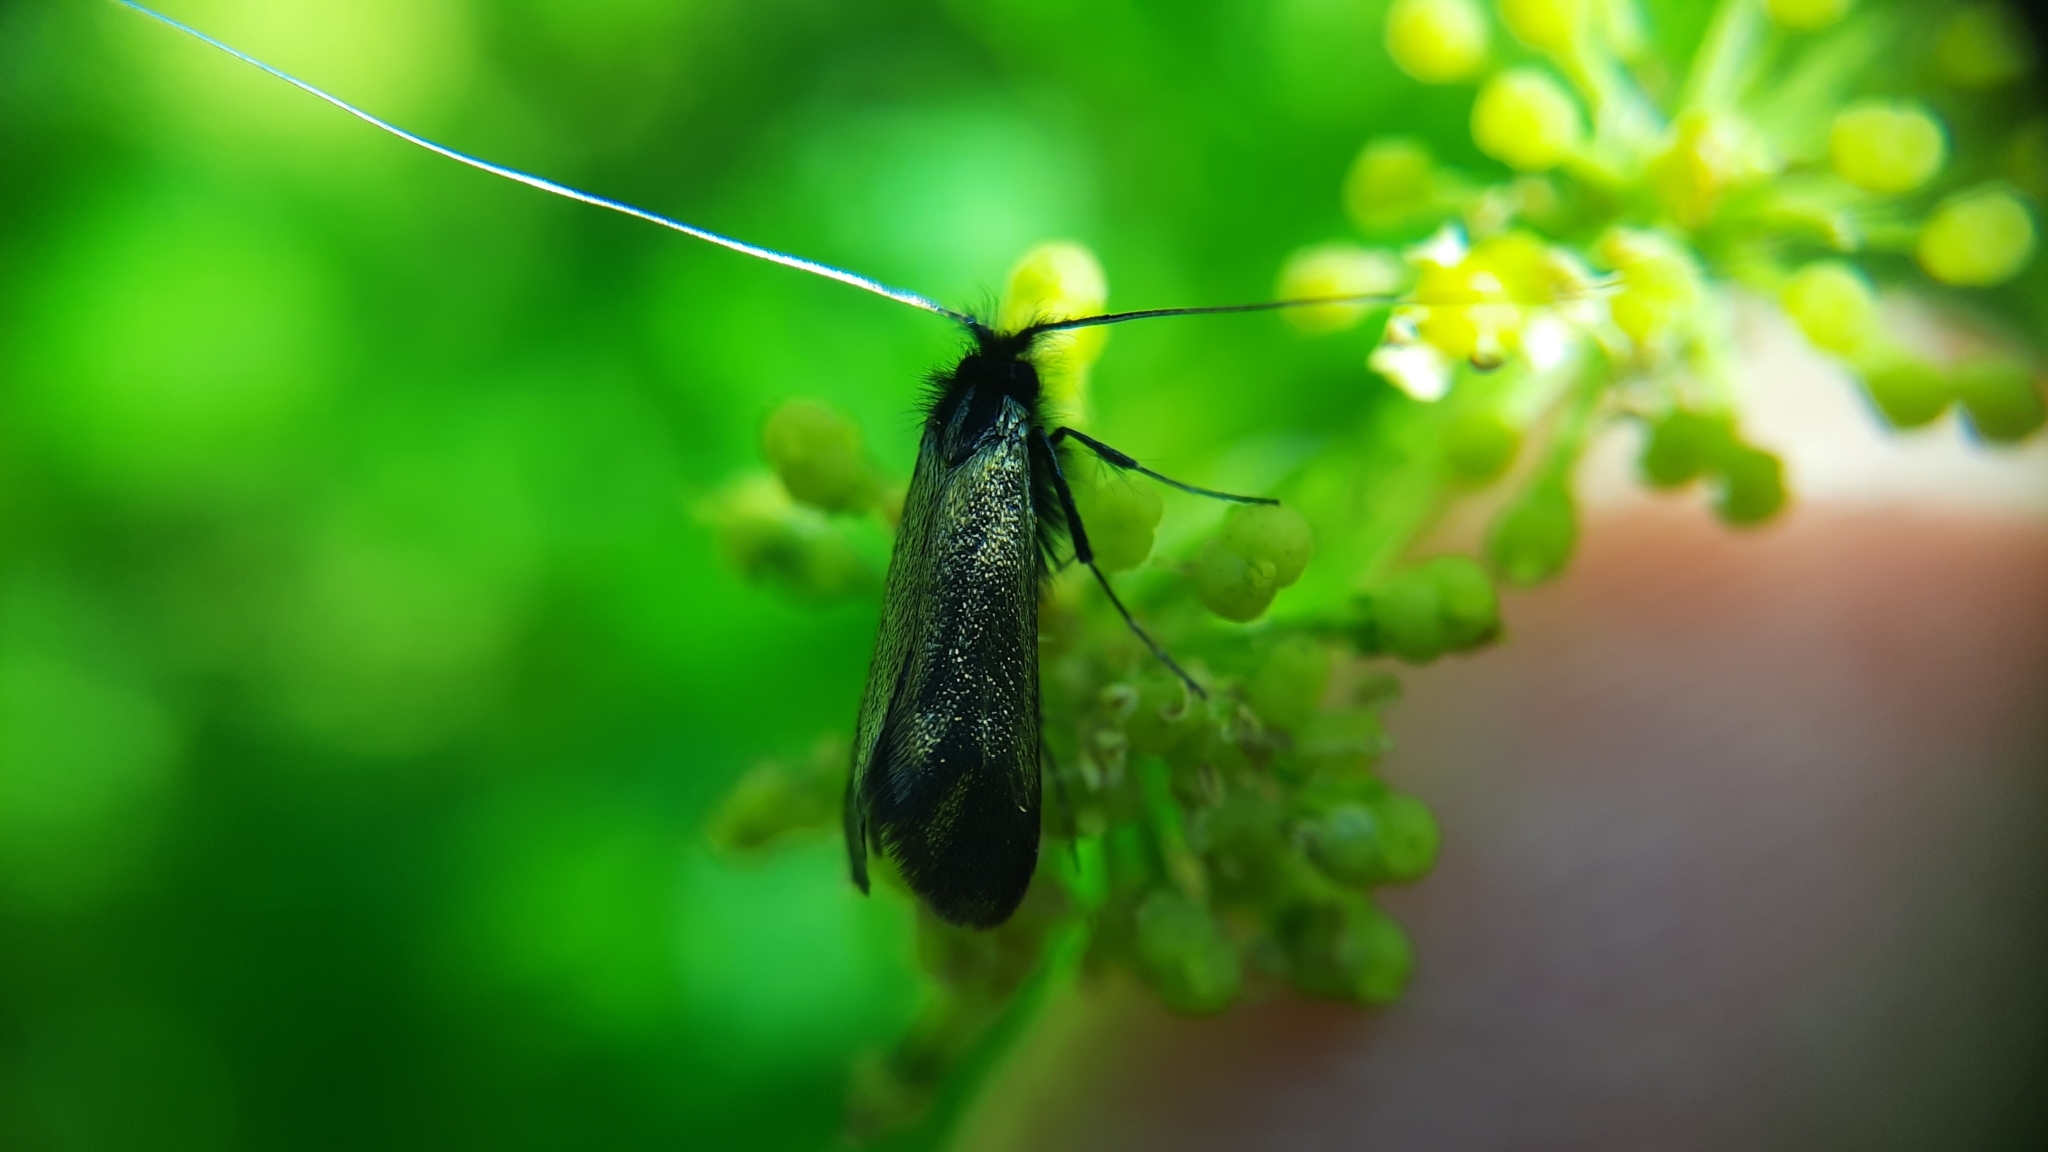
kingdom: Animalia
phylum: Arthropoda
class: Insecta
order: Lepidoptera
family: Adelidae
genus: Adela
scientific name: Adela viridella
